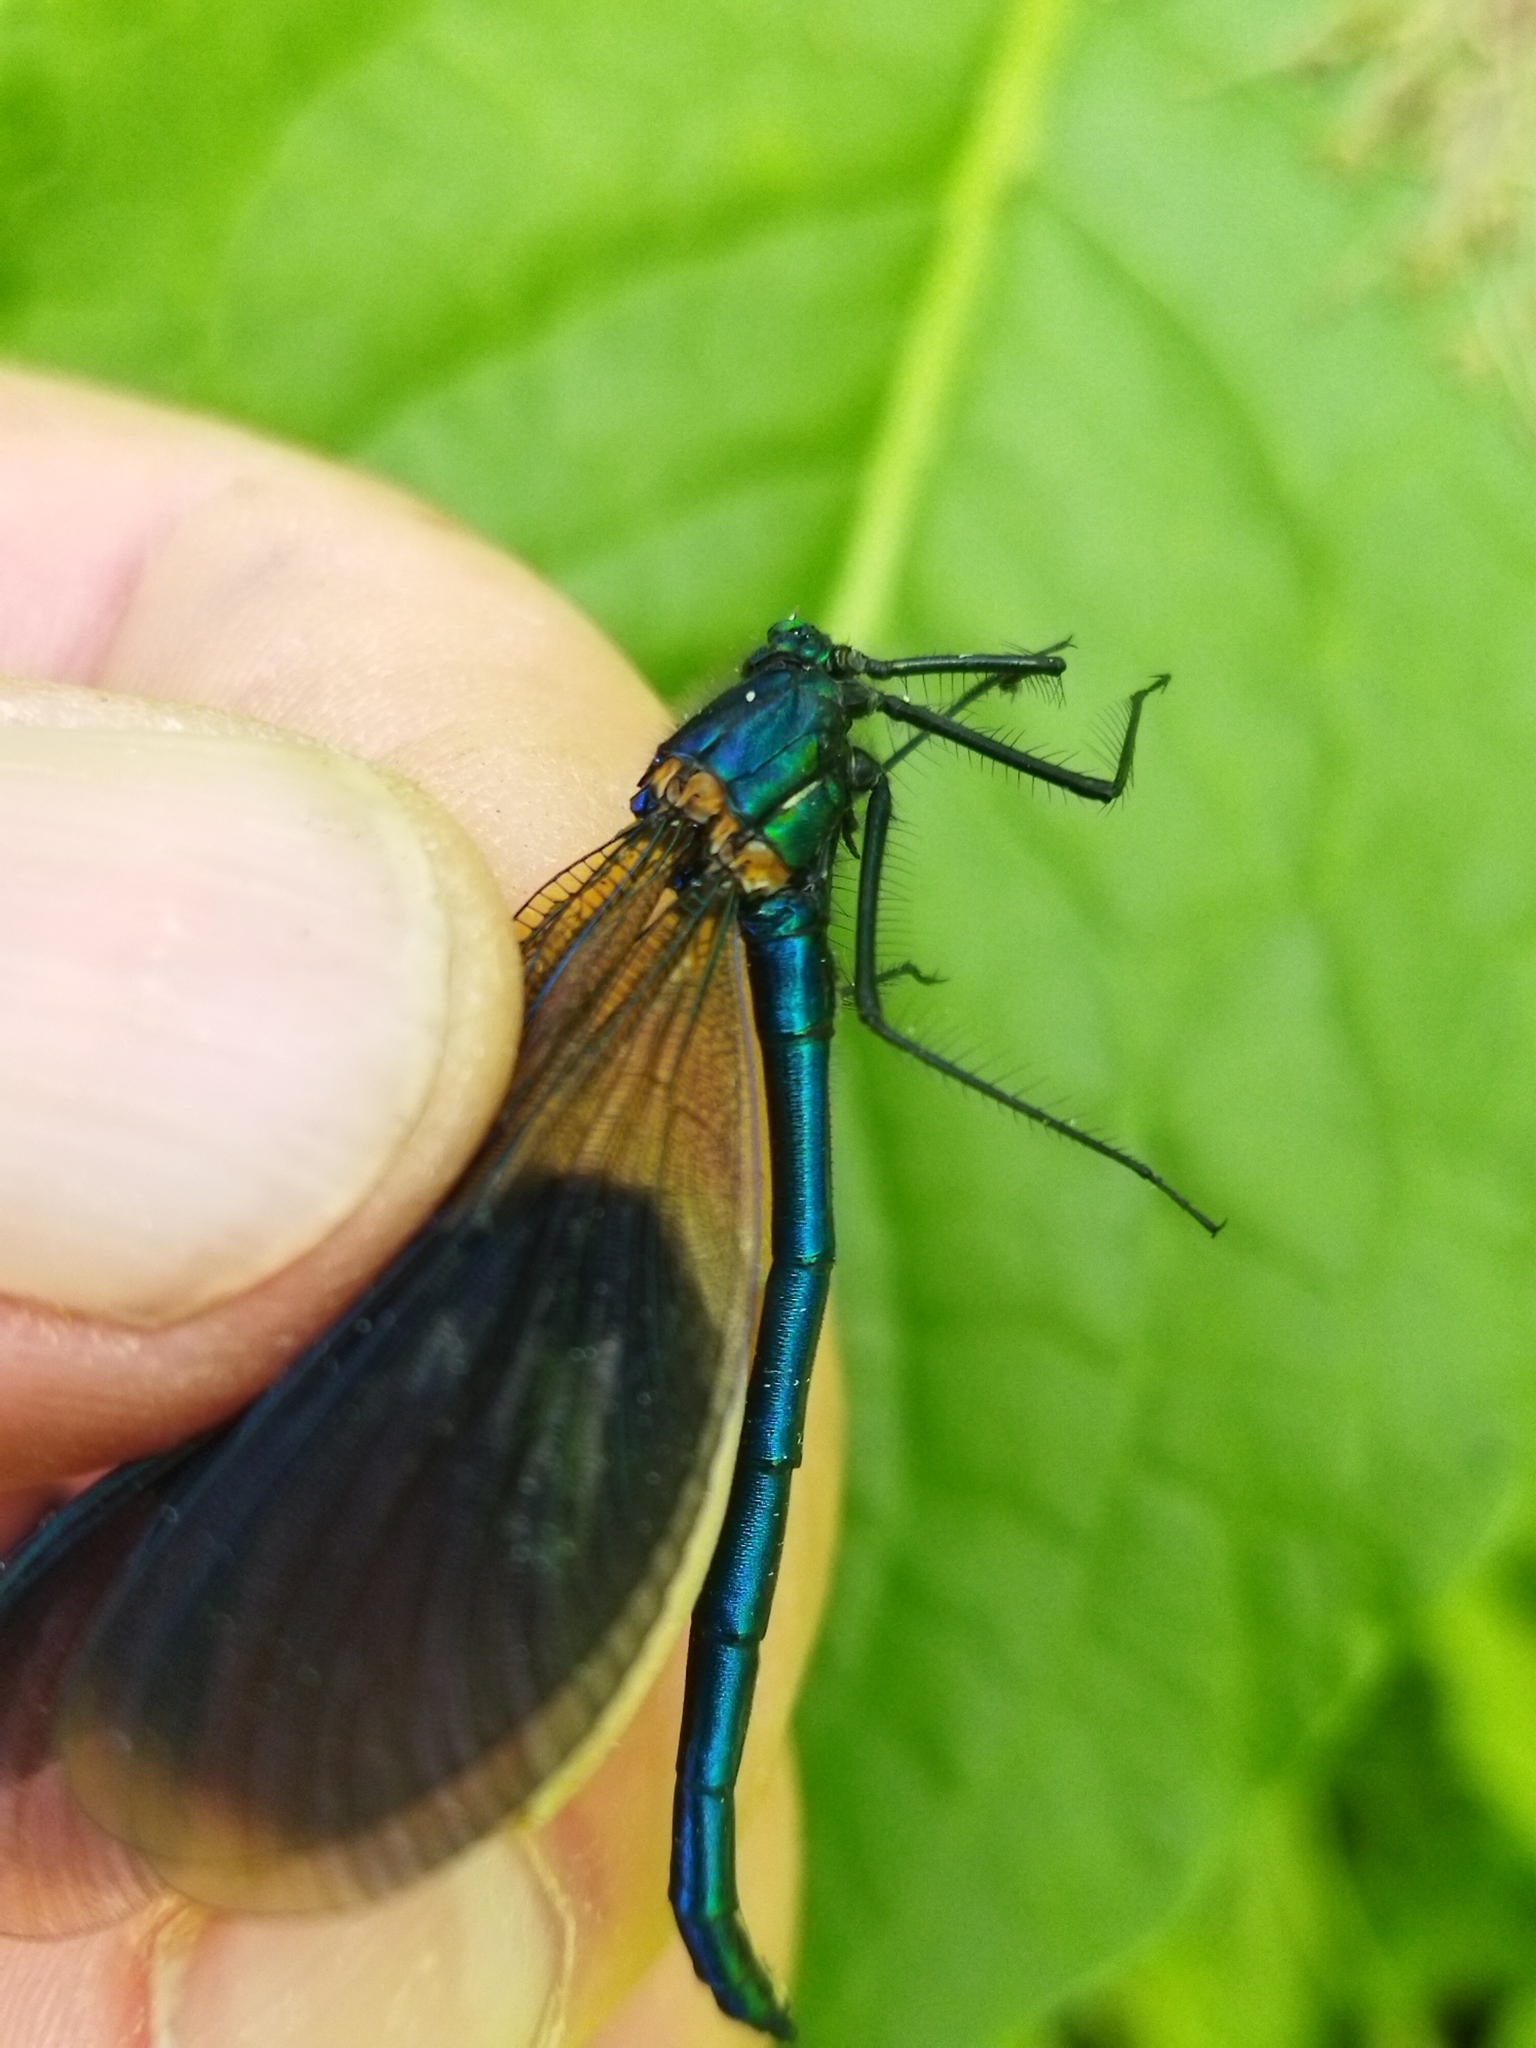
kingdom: Animalia
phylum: Arthropoda
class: Insecta
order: Odonata
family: Calopterygidae
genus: Calopteryx
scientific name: Calopteryx splendens
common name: Banded demoiselle
